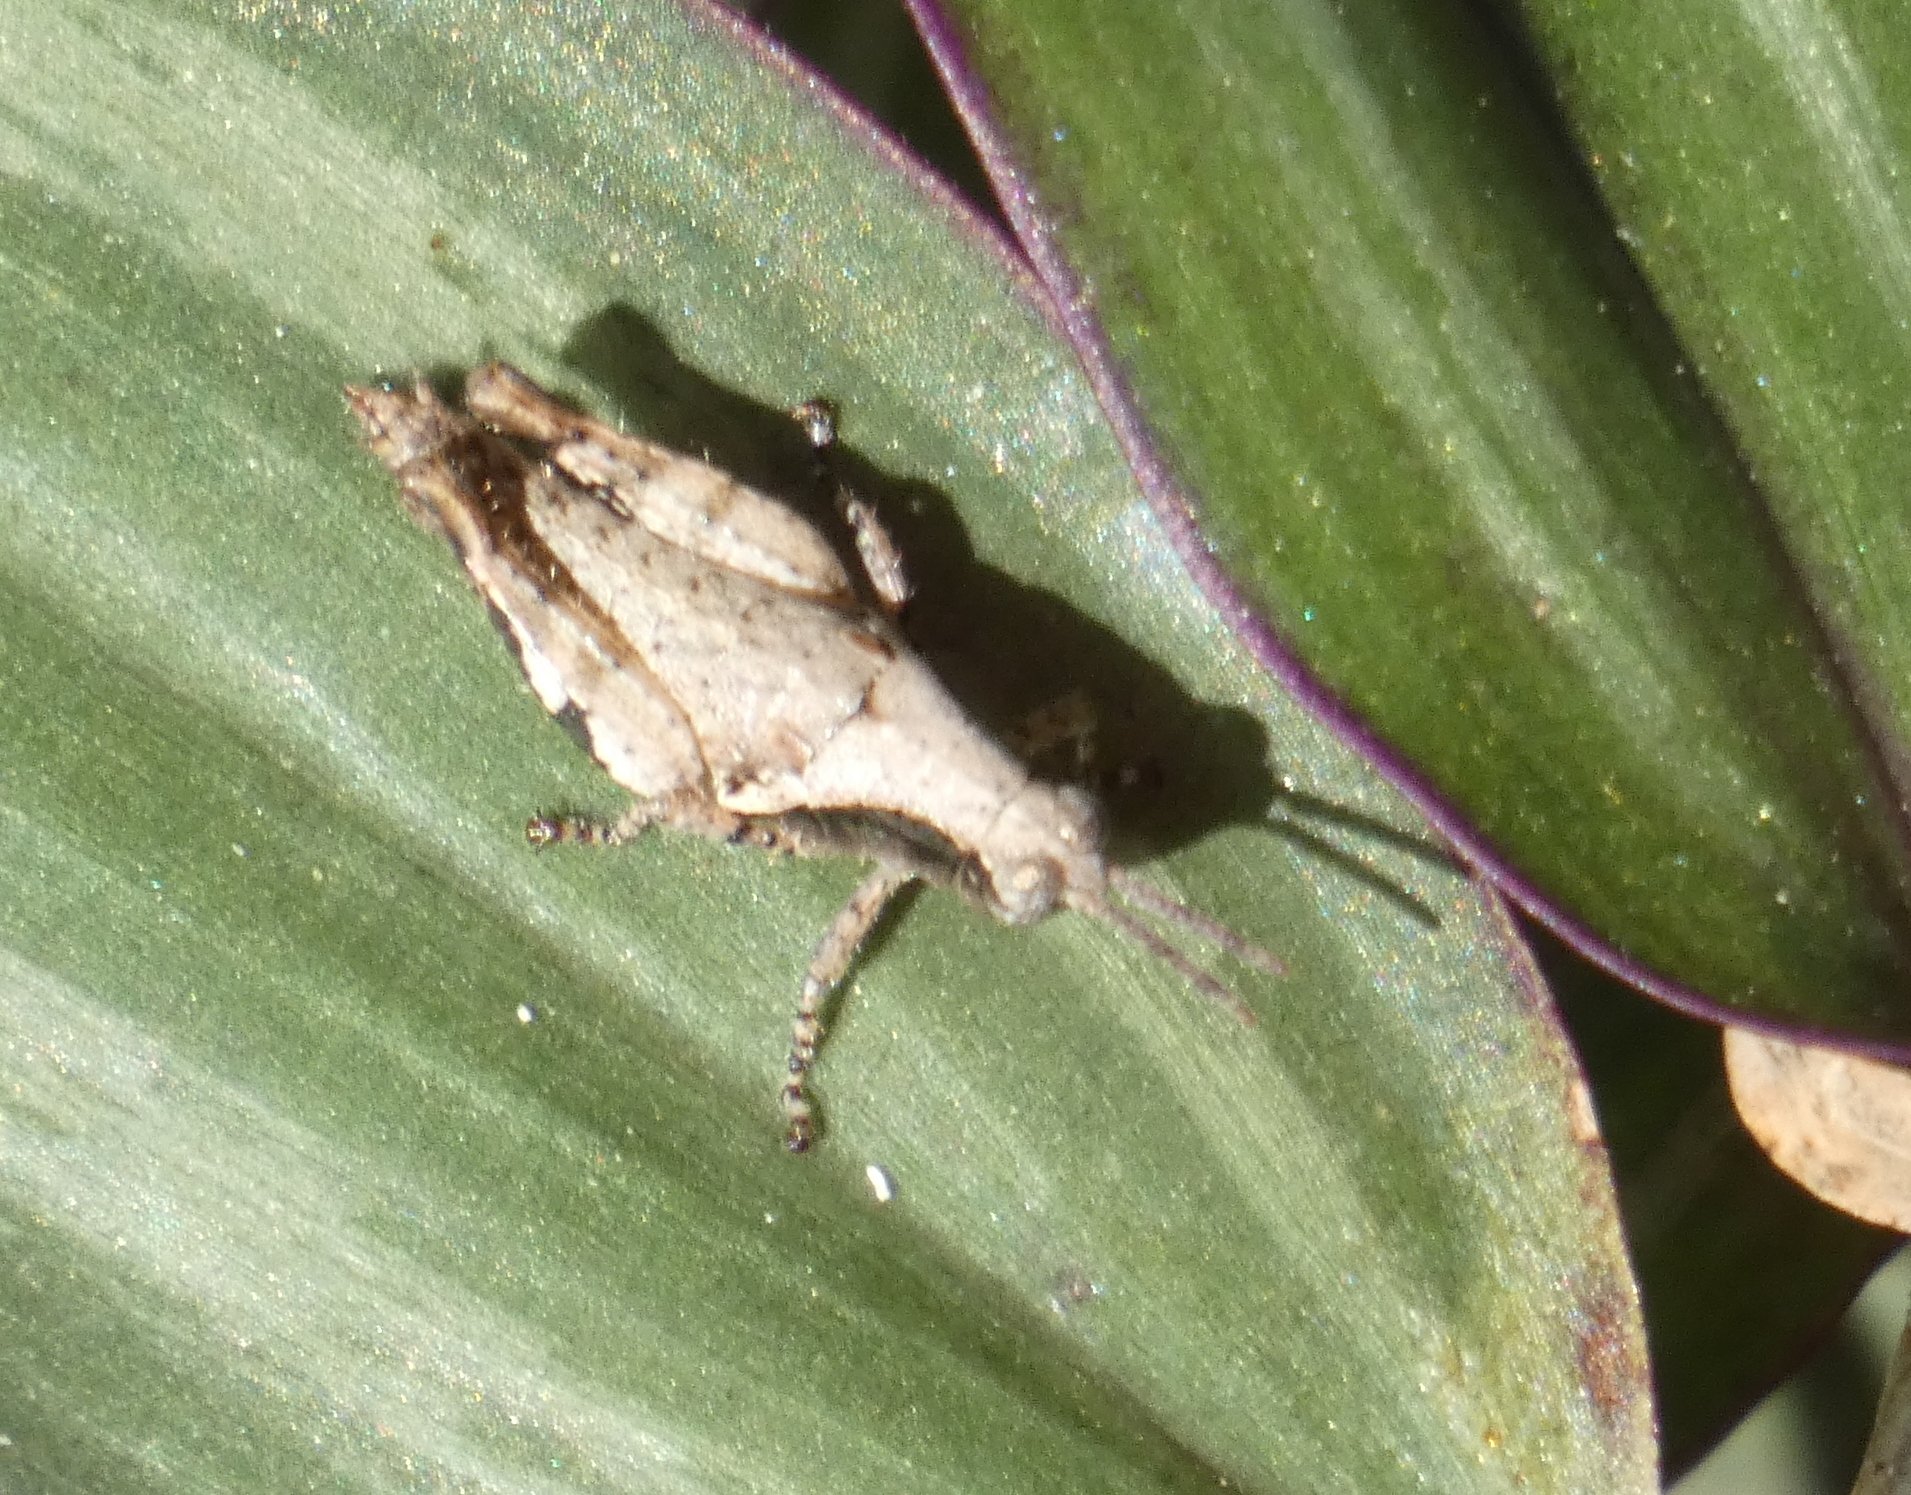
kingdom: Animalia
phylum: Arthropoda
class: Insecta
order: Orthoptera
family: Acrididae
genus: Eujivarus
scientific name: Eujivarus meridionalis
